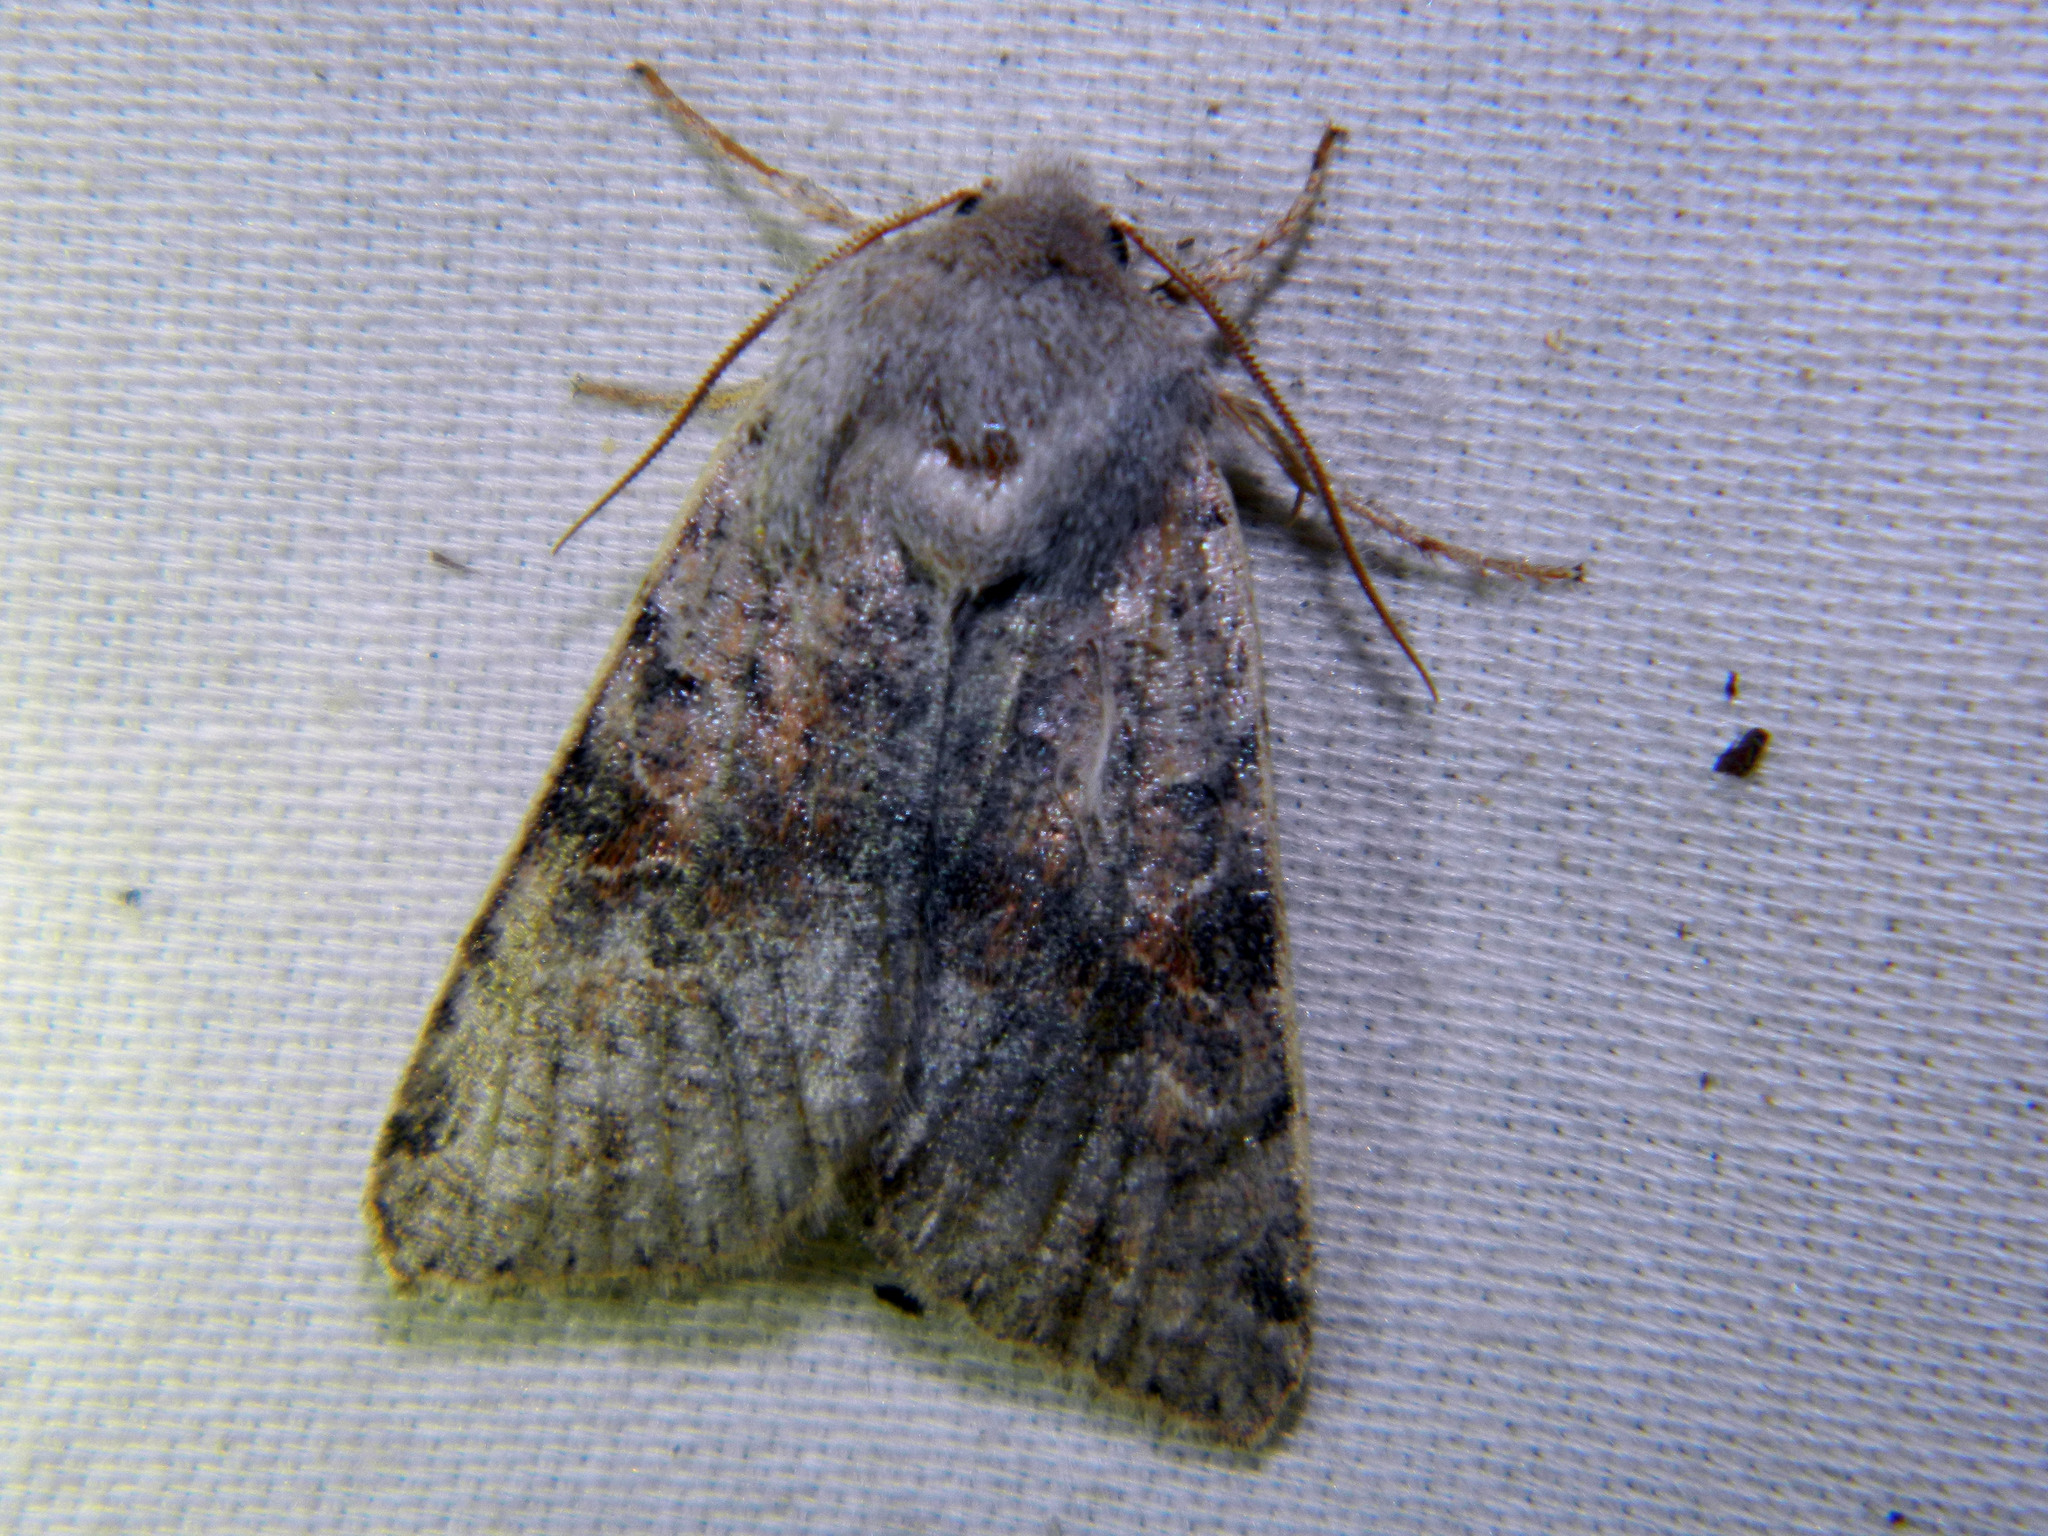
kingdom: Animalia
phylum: Arthropoda
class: Insecta
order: Lepidoptera
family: Noctuidae
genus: Orthosia
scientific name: Orthosia hibisci
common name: Green fruitworm
